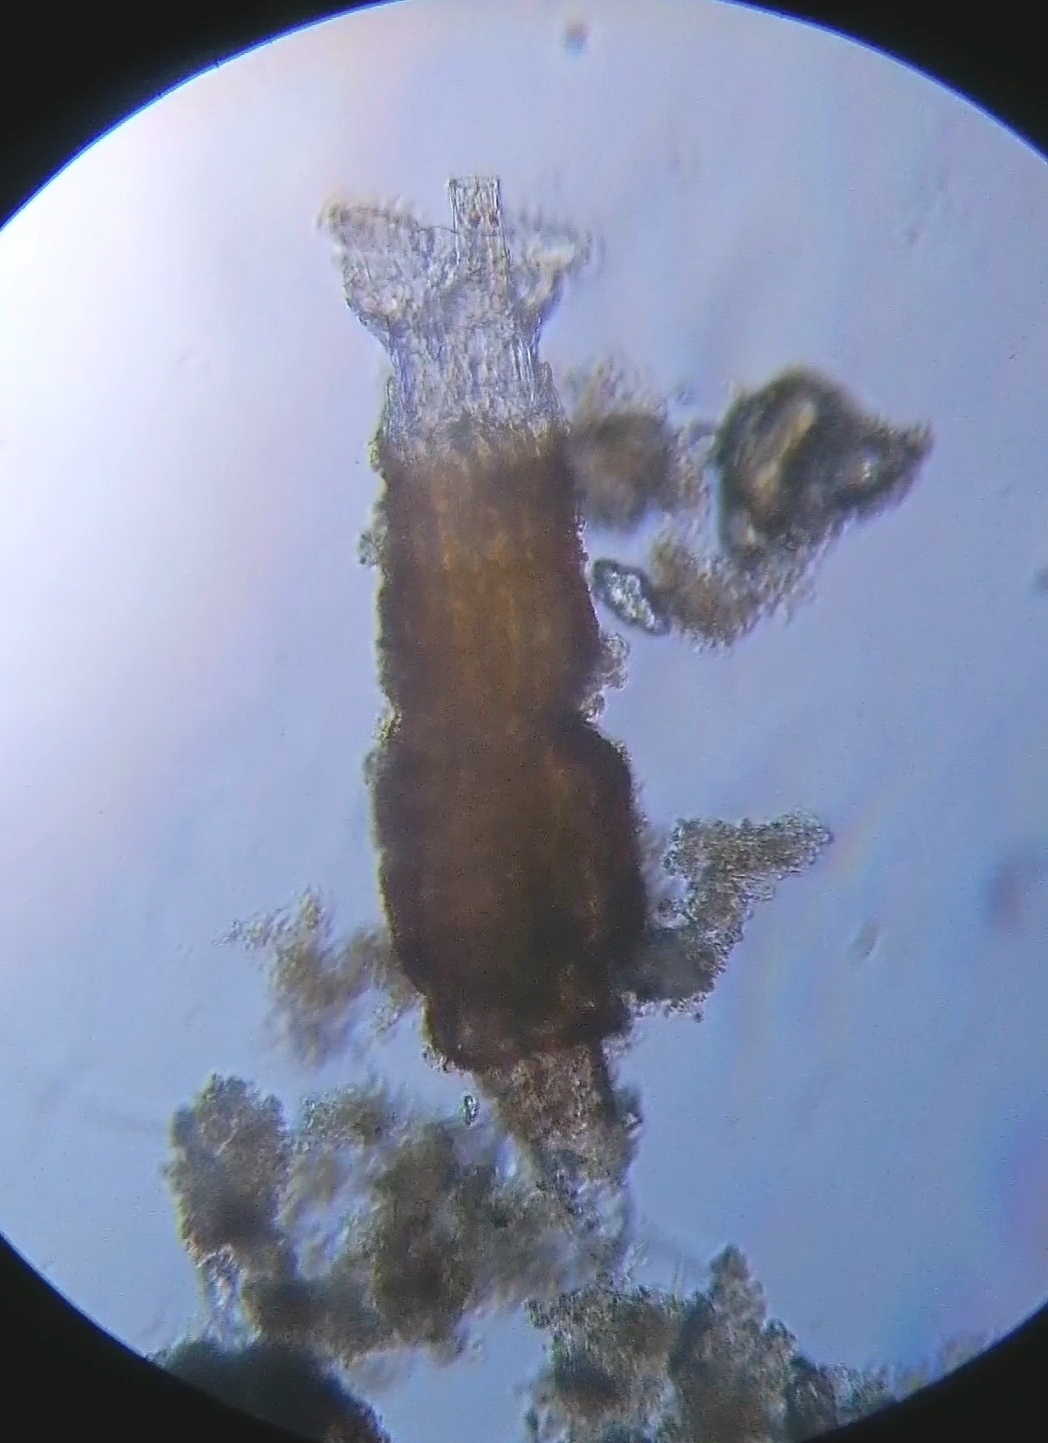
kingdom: Animalia
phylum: Rotifera
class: Eurotatoria
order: Bdelloidea
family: Philodinidae
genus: Rotaria
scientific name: Rotaria tardigrada
